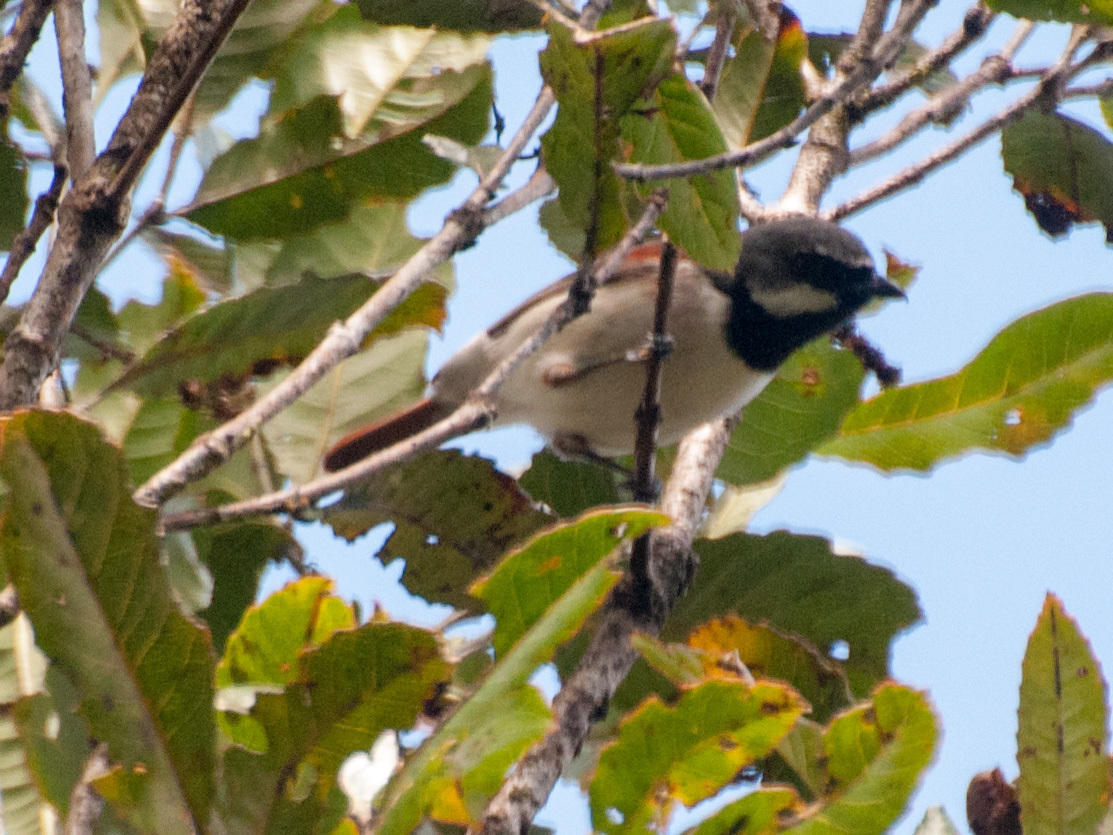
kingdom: Animalia
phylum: Chordata
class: Aves
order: Passeriformes
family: Vangidae
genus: Calicalicus
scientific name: Calicalicus madagascariensis
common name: Red-tailed vanga
